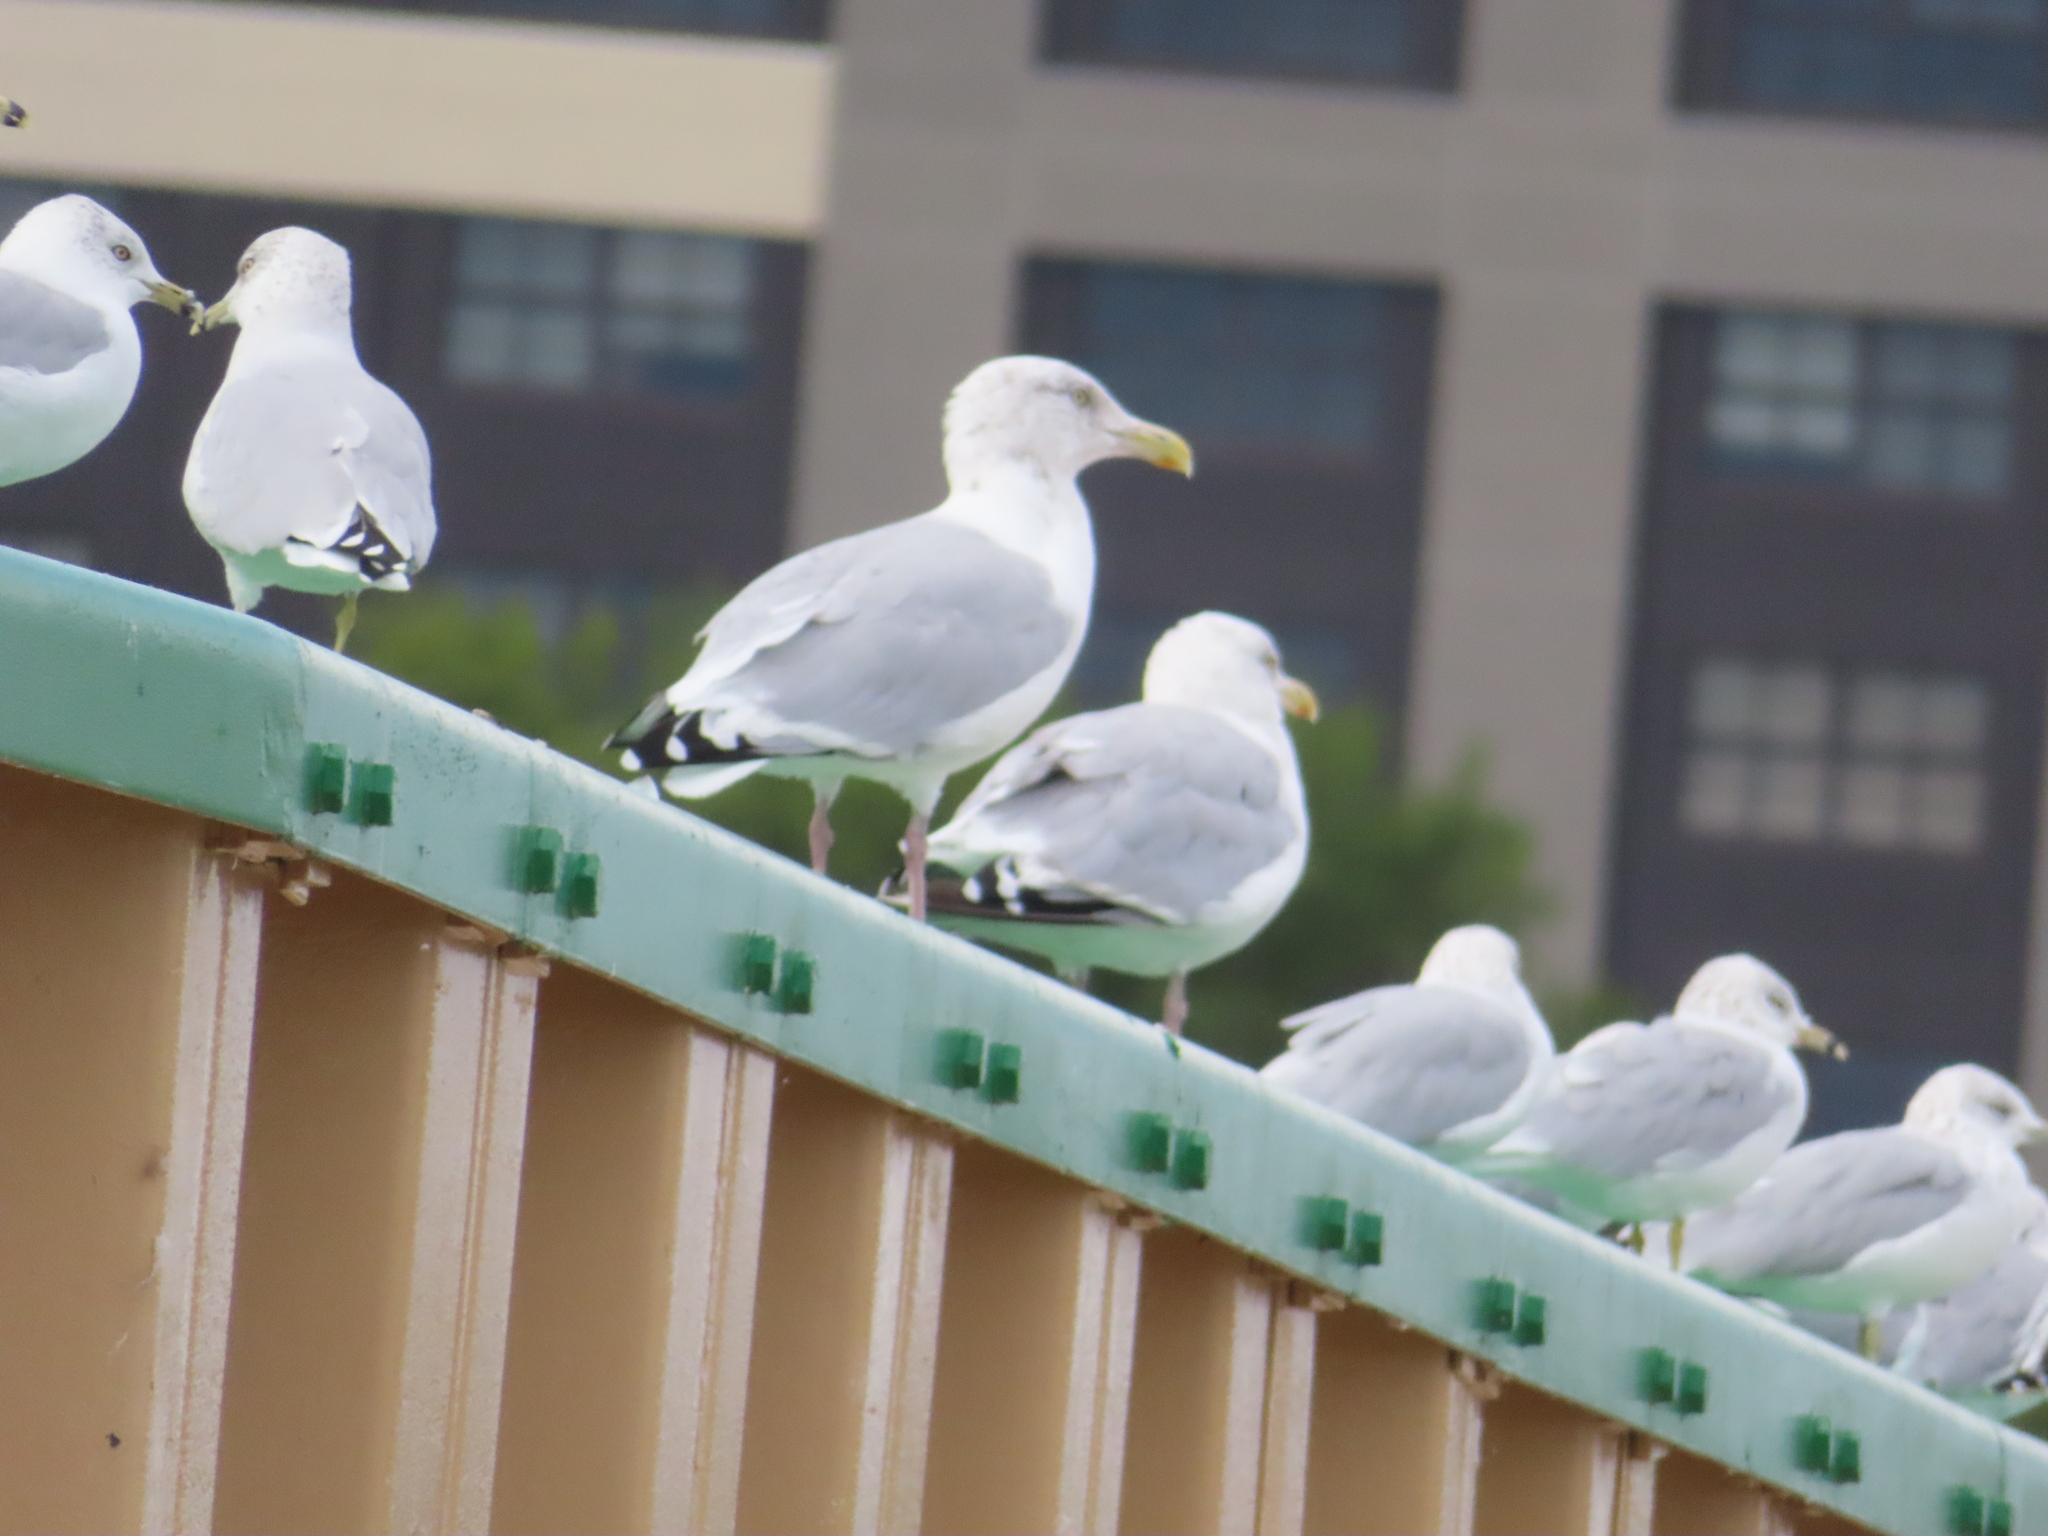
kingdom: Animalia
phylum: Chordata
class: Aves
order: Charadriiformes
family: Laridae
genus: Larus
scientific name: Larus argentatus
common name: Herring gull
